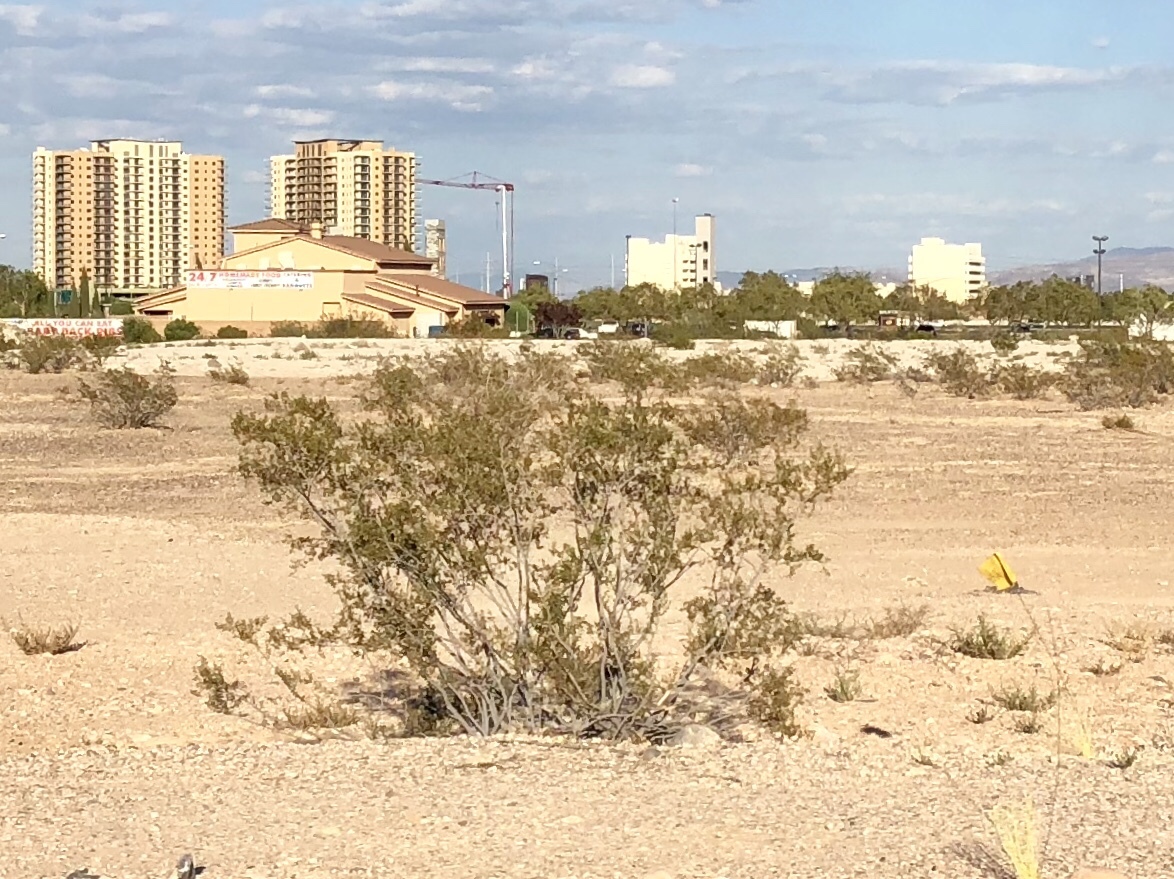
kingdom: Plantae
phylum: Tracheophyta
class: Magnoliopsida
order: Zygophyllales
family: Zygophyllaceae
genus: Larrea
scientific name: Larrea tridentata
